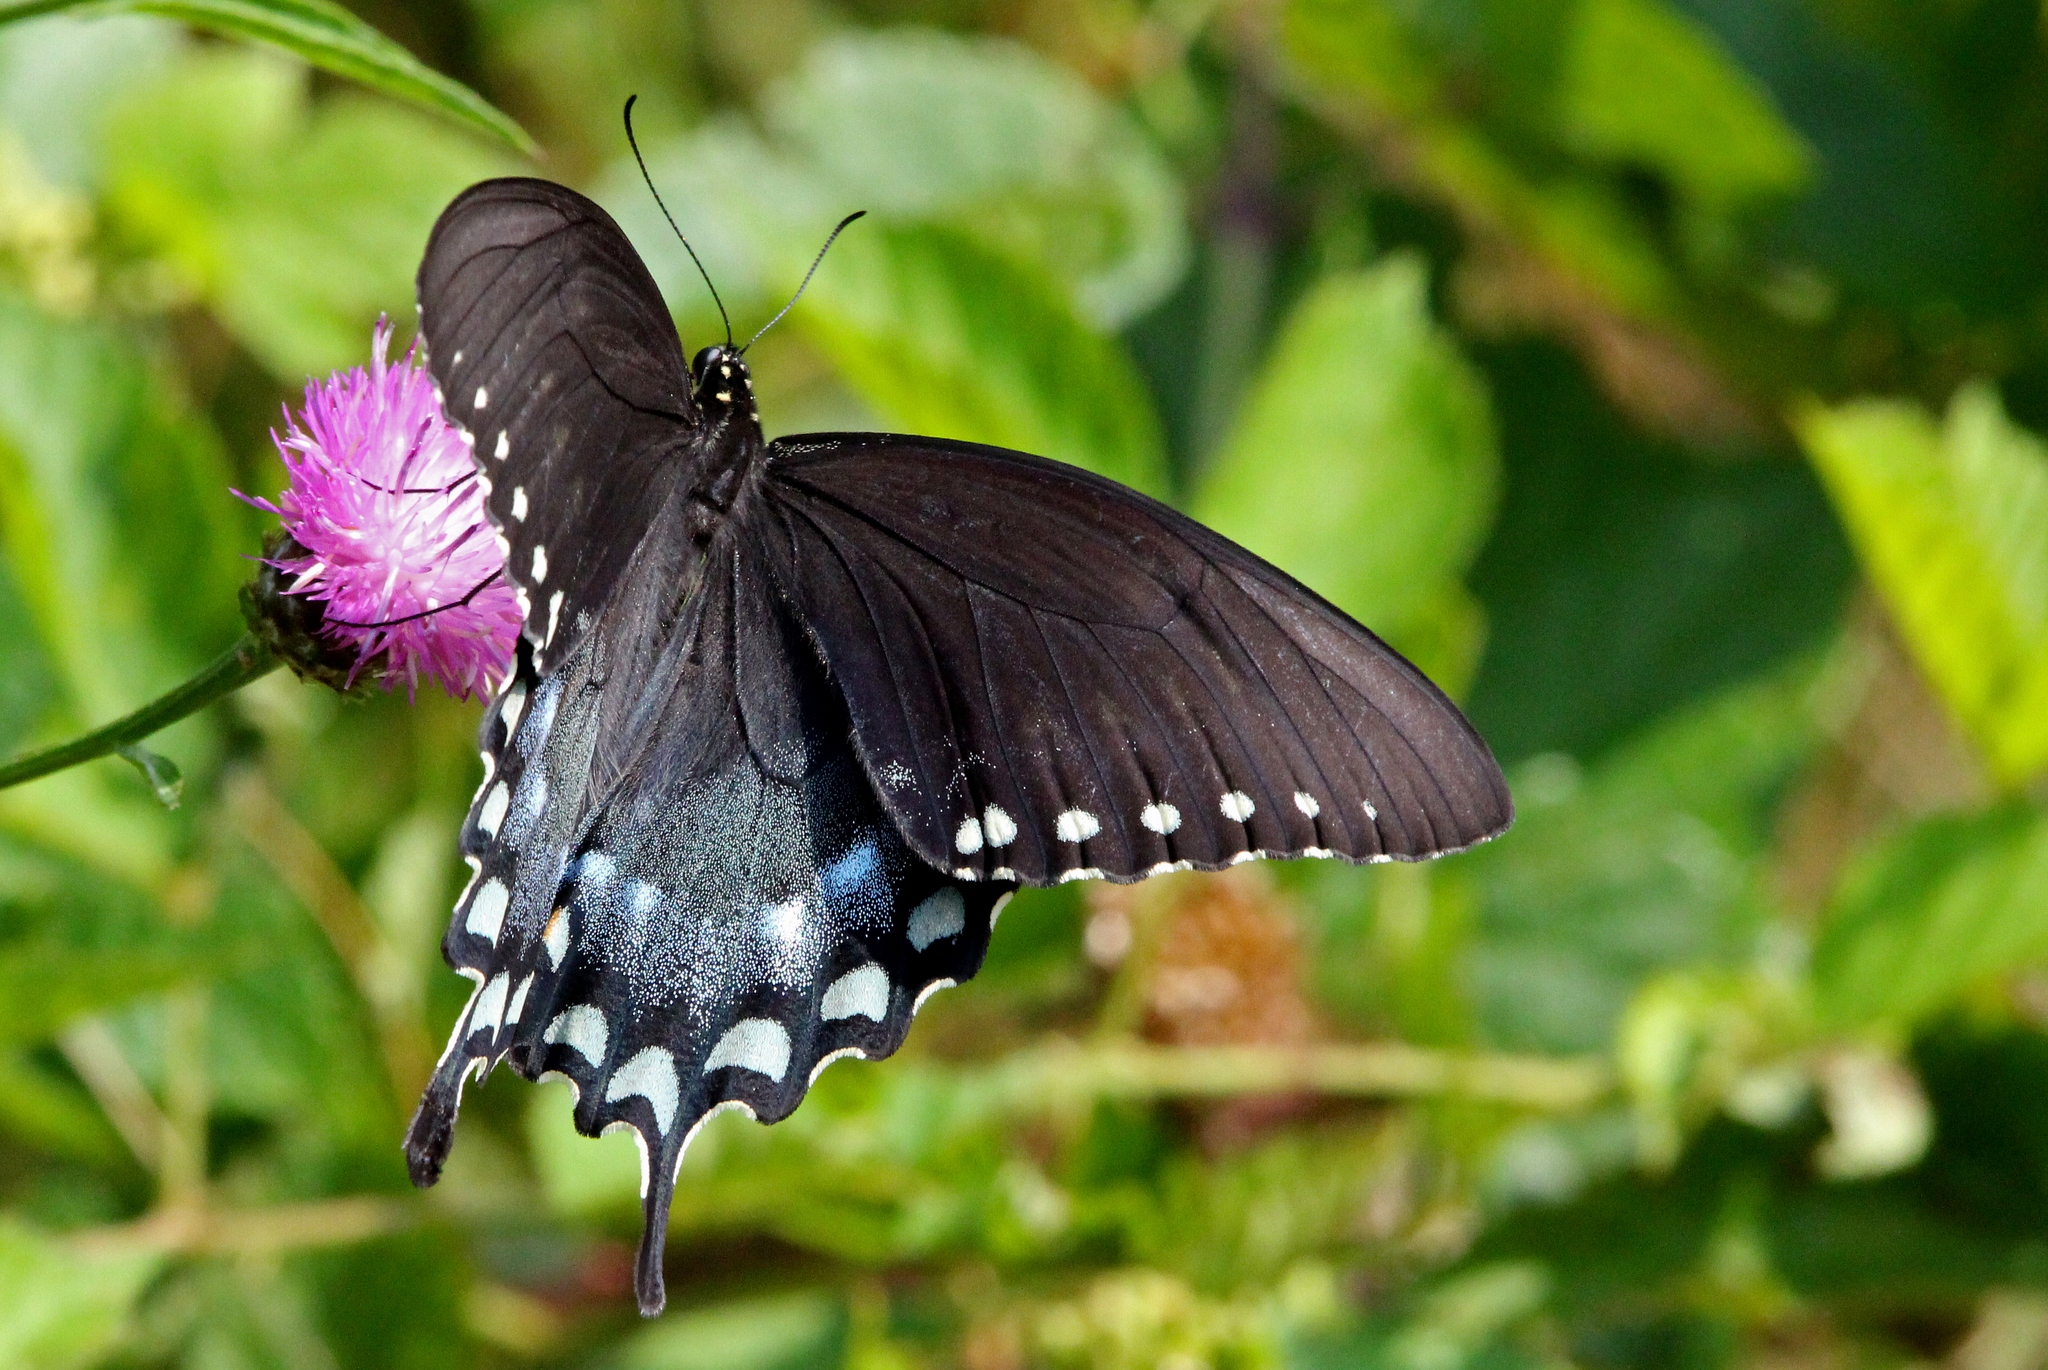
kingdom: Animalia
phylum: Arthropoda
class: Insecta
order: Lepidoptera
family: Papilionidae
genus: Papilio
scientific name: Papilio troilus
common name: Spicebush swallowtail
